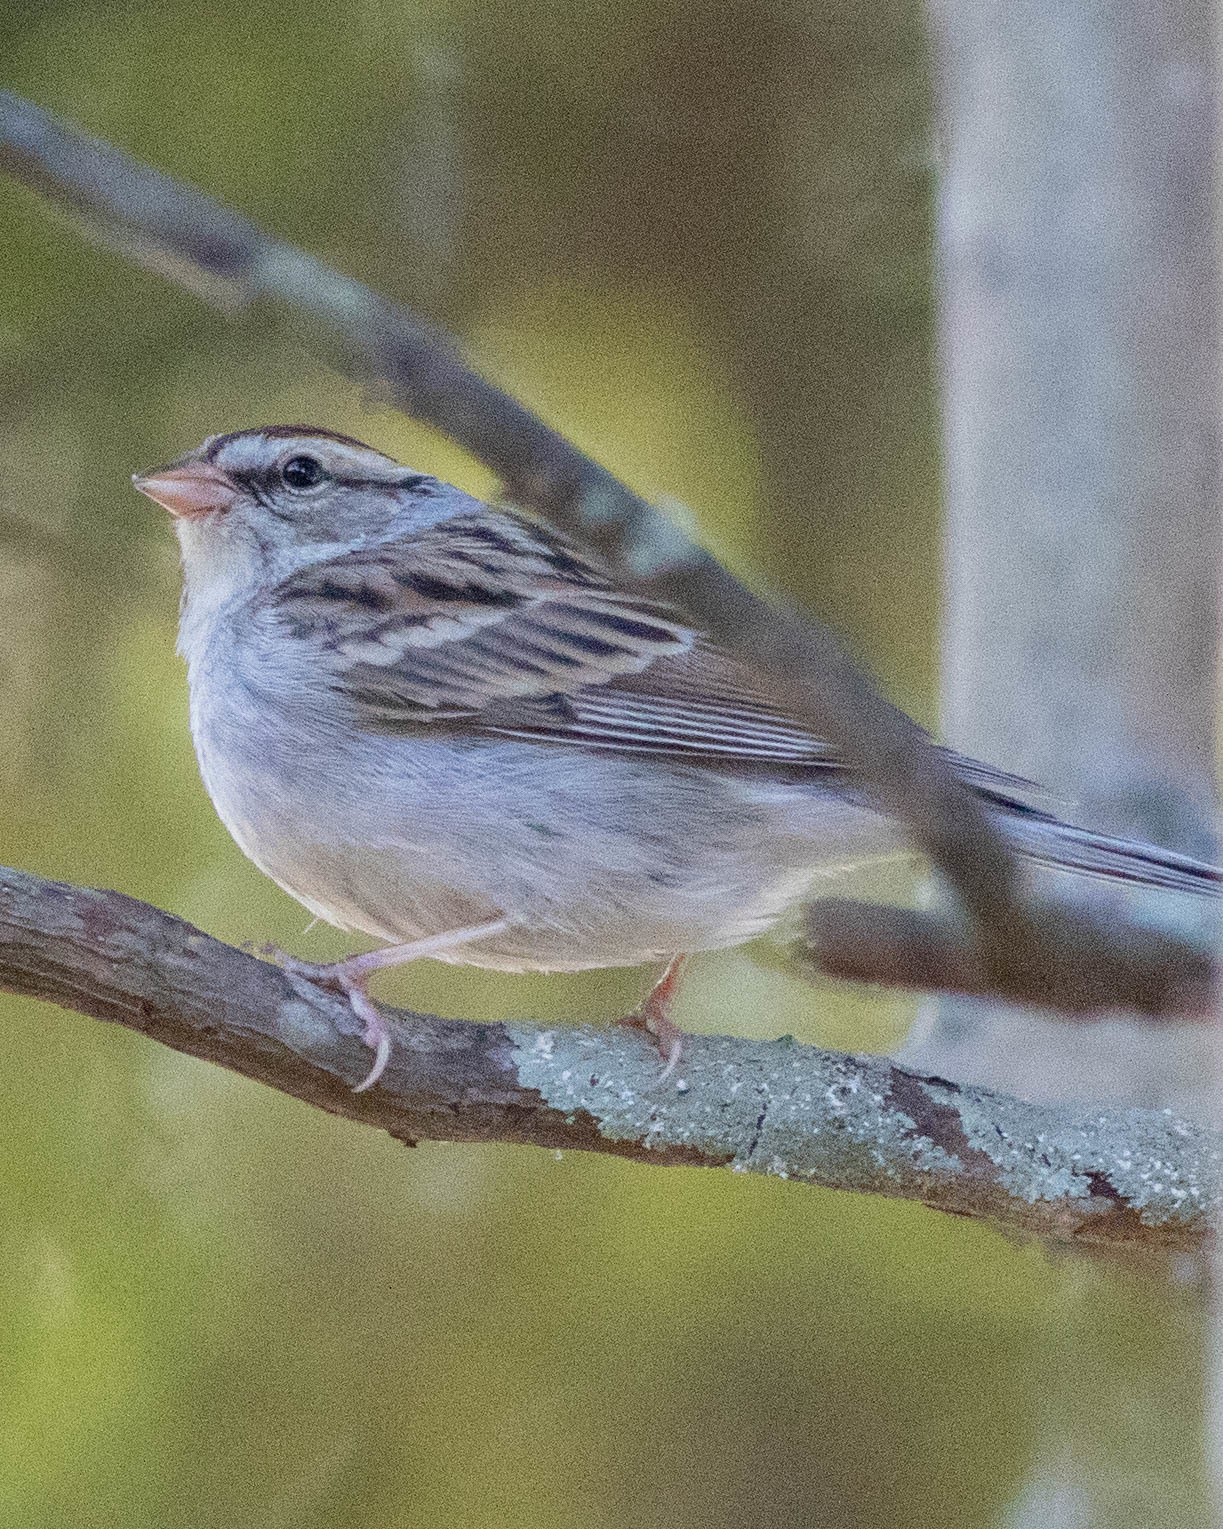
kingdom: Animalia
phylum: Chordata
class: Aves
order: Passeriformes
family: Passerellidae
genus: Spizella
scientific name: Spizella passerina
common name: Chipping sparrow
